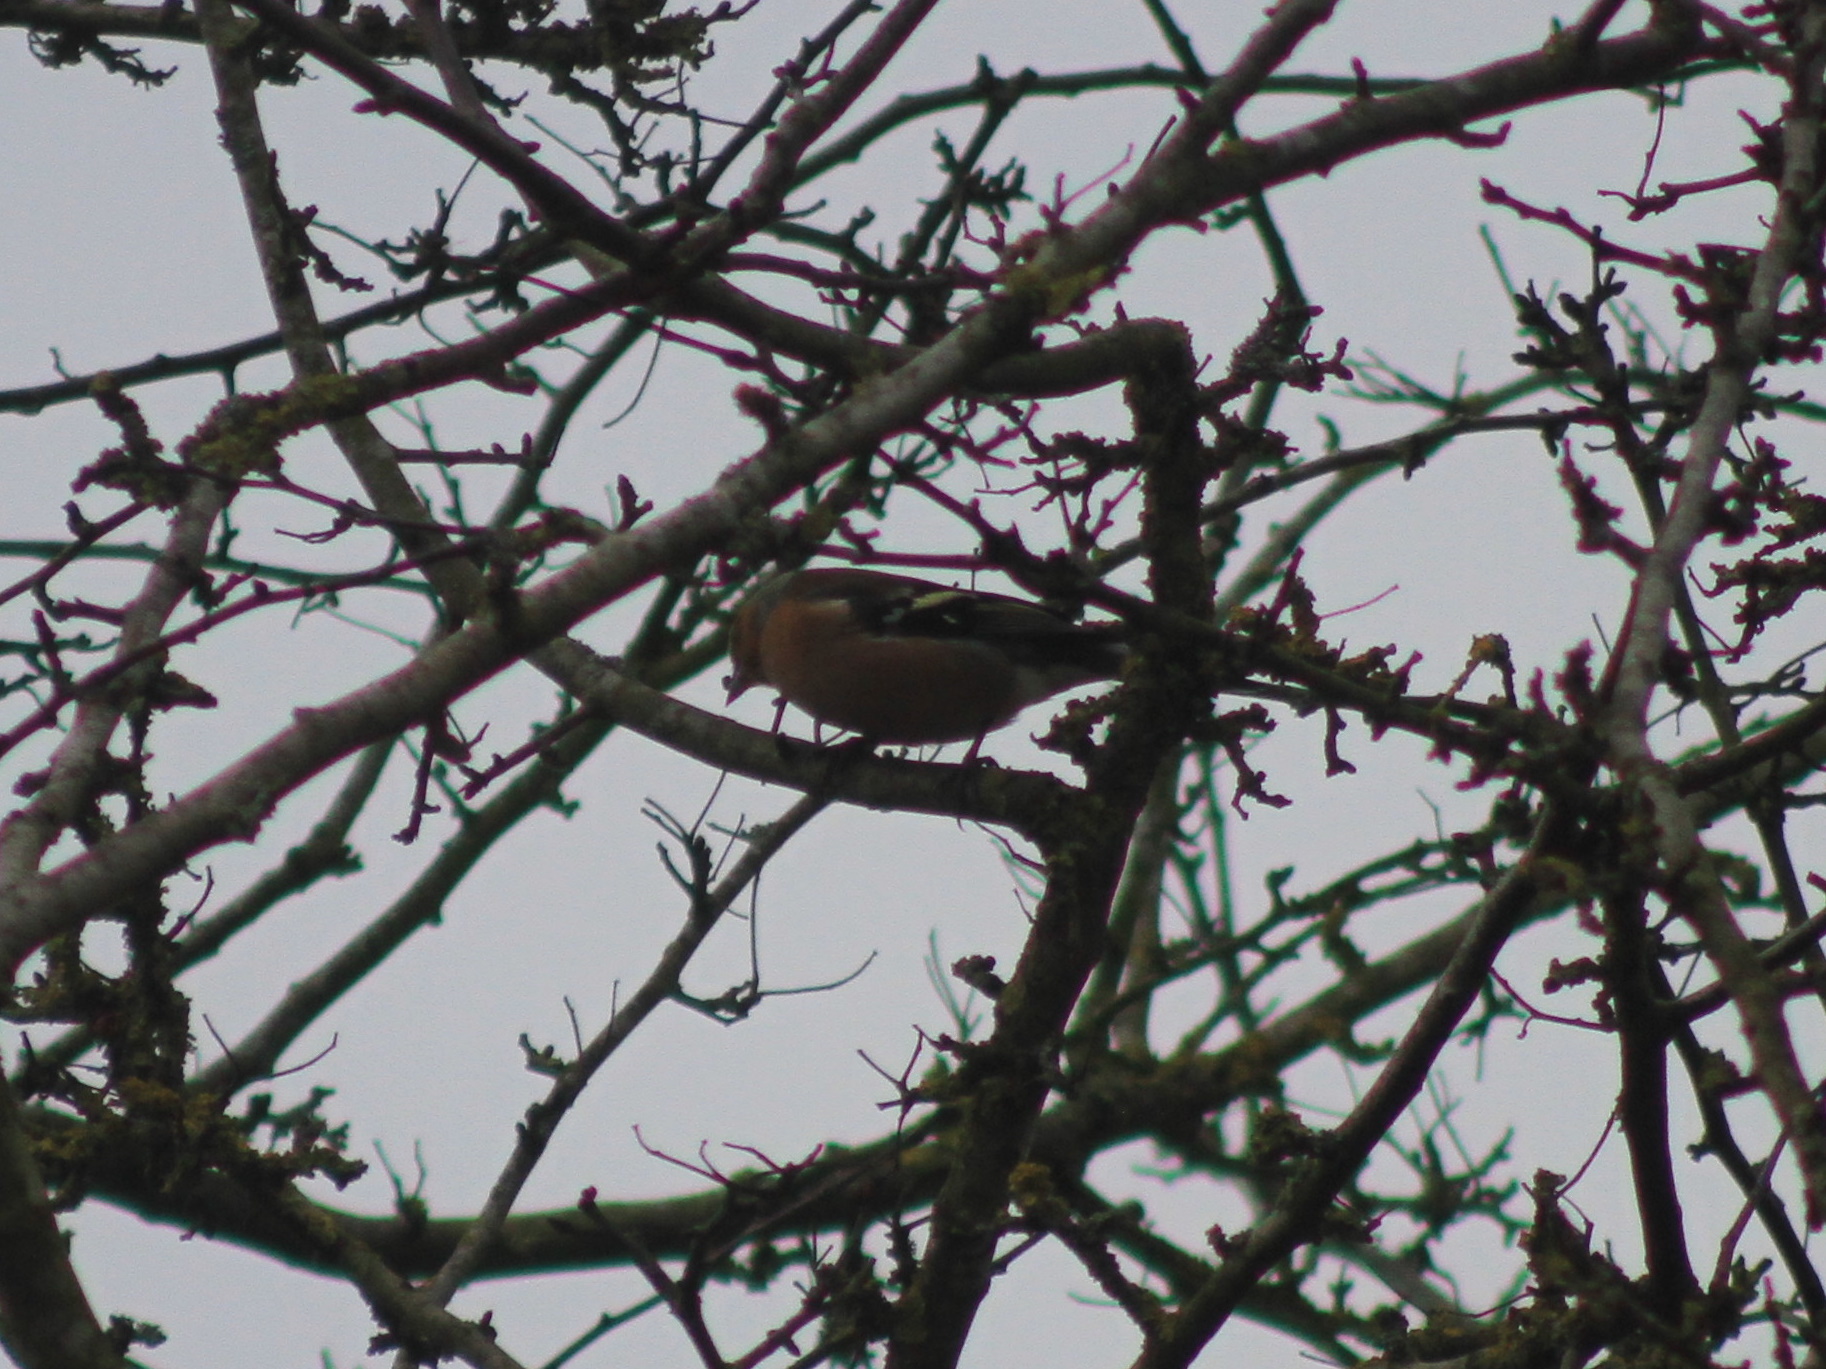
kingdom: Animalia
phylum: Chordata
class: Aves
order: Passeriformes
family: Fringillidae
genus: Fringilla
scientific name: Fringilla coelebs
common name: Common chaffinch
